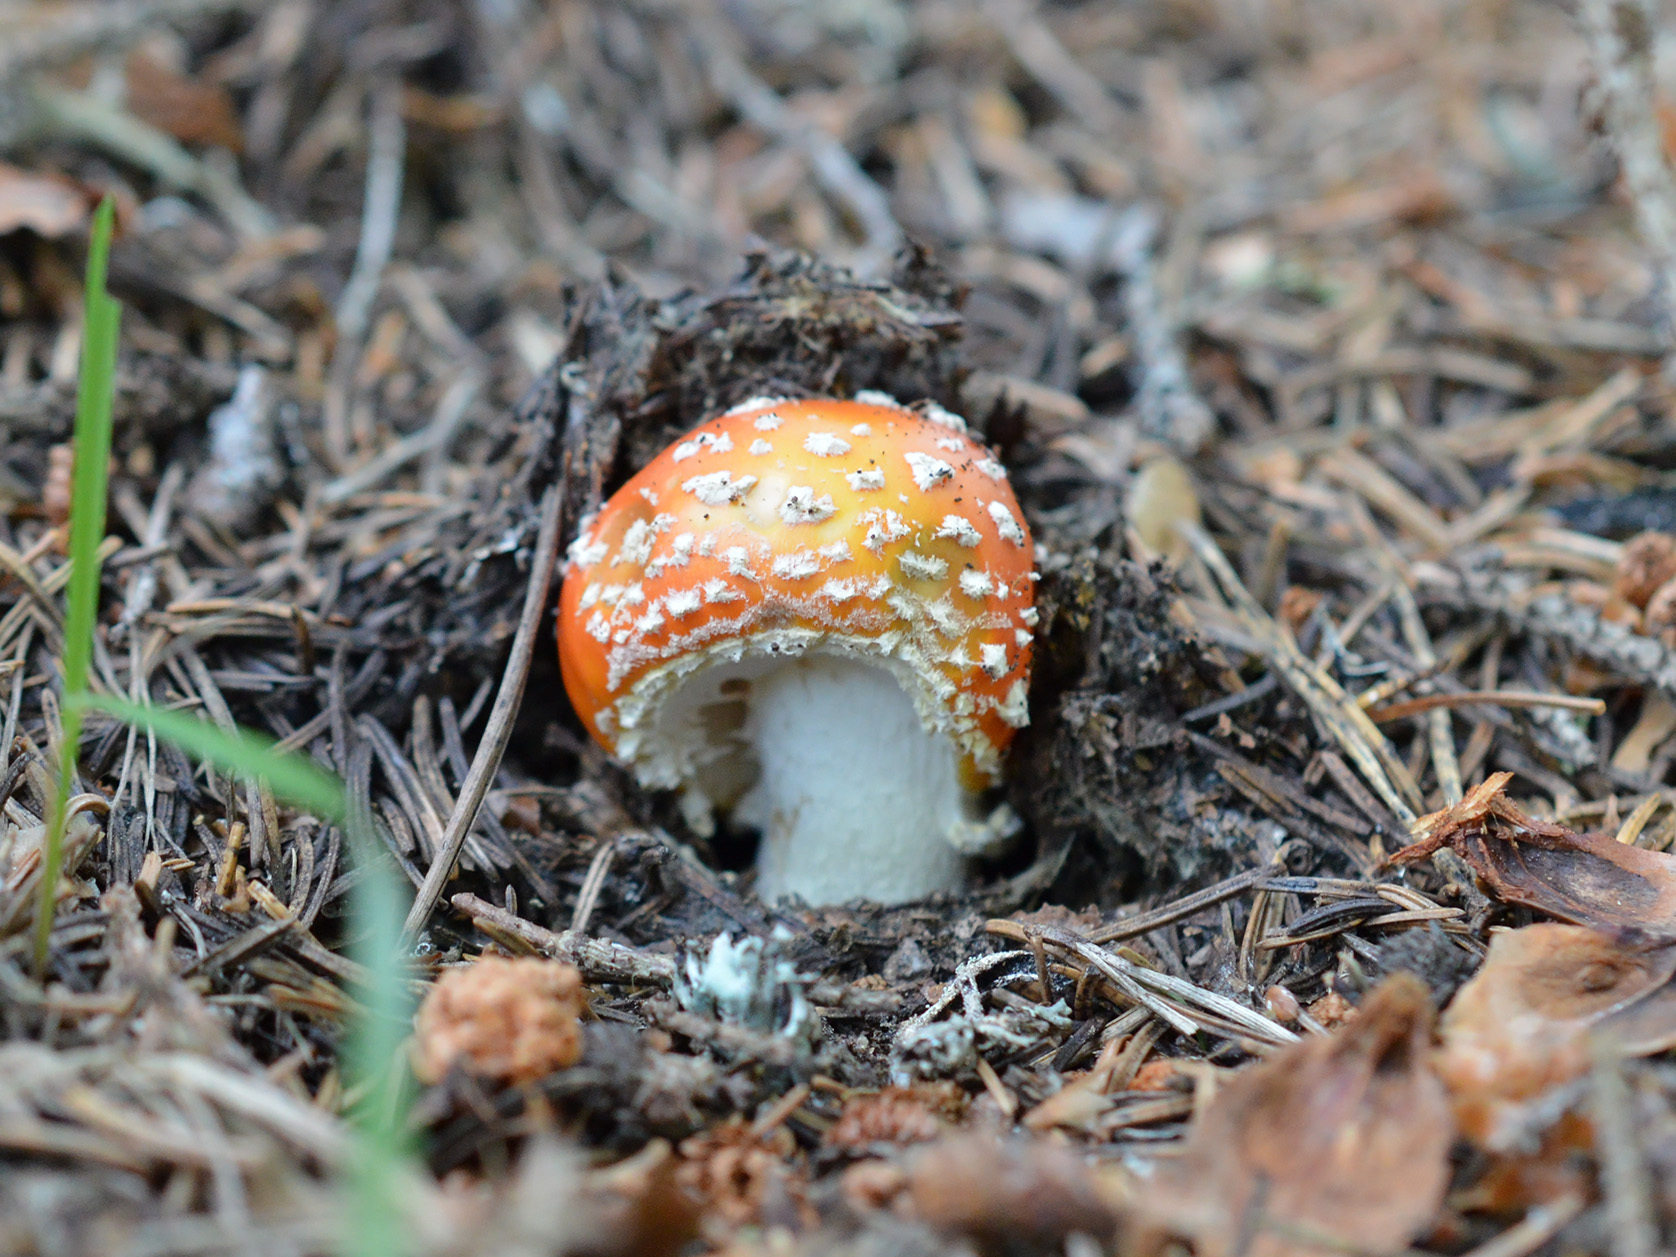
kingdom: Fungi
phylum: Basidiomycota
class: Agaricomycetes
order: Agaricales
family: Amanitaceae
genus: Amanita
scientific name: Amanita muscaria
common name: Fly agaric
